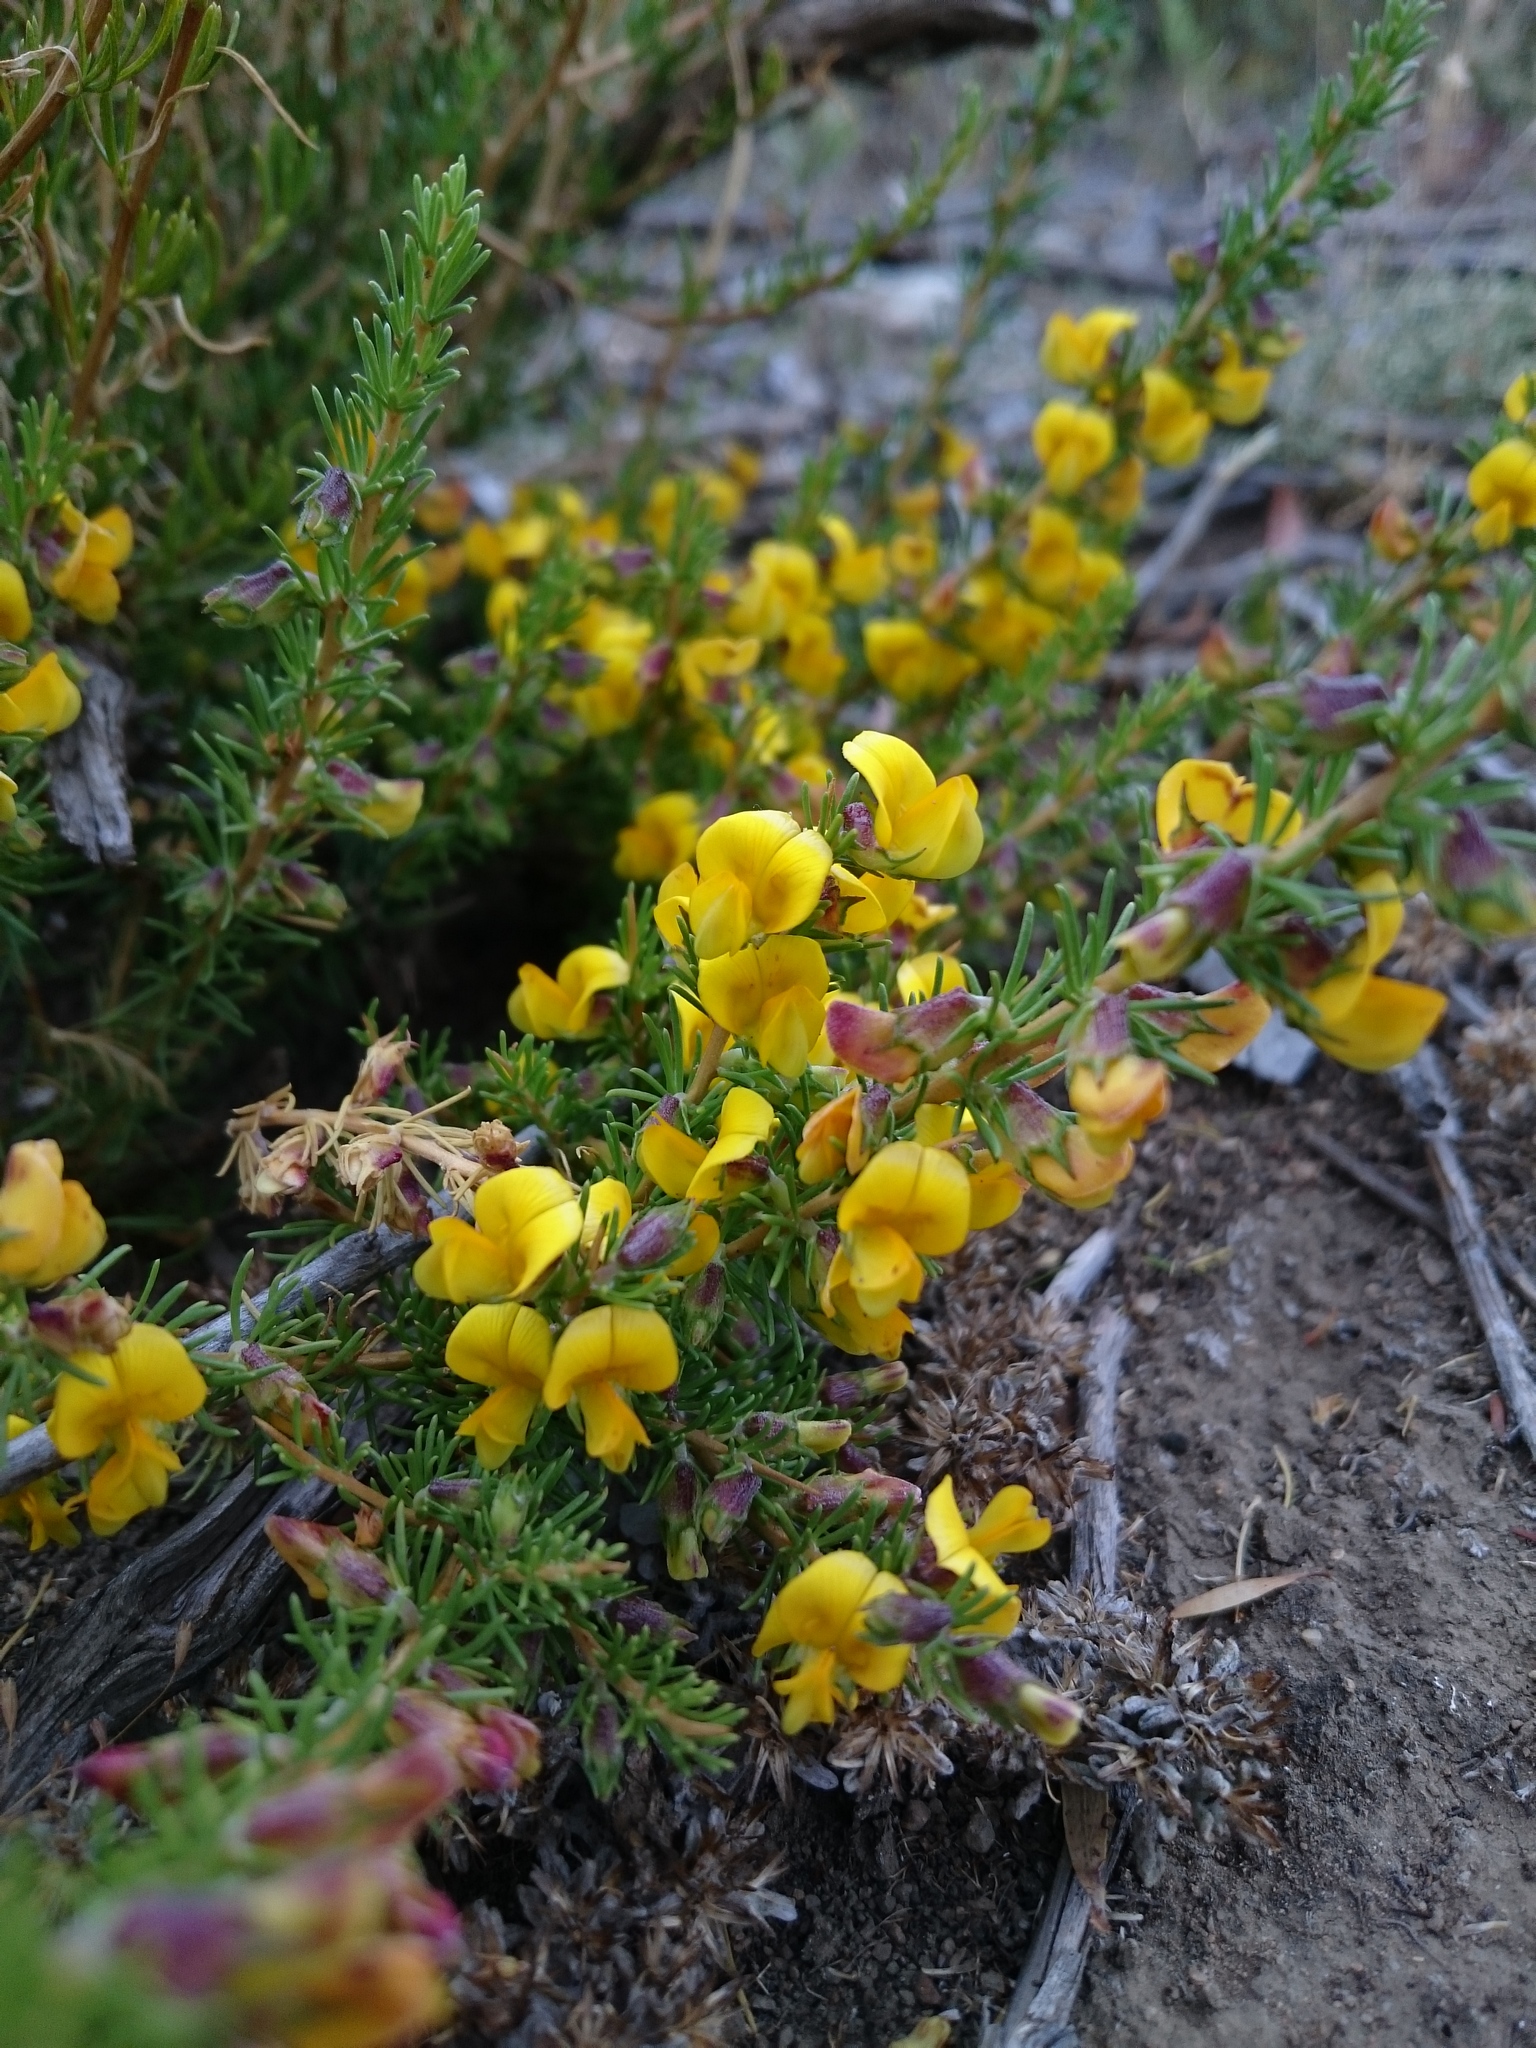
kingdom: Plantae
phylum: Tracheophyta
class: Magnoliopsida
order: Fabales
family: Fabaceae
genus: Aspalathus
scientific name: Aspalathus arida
